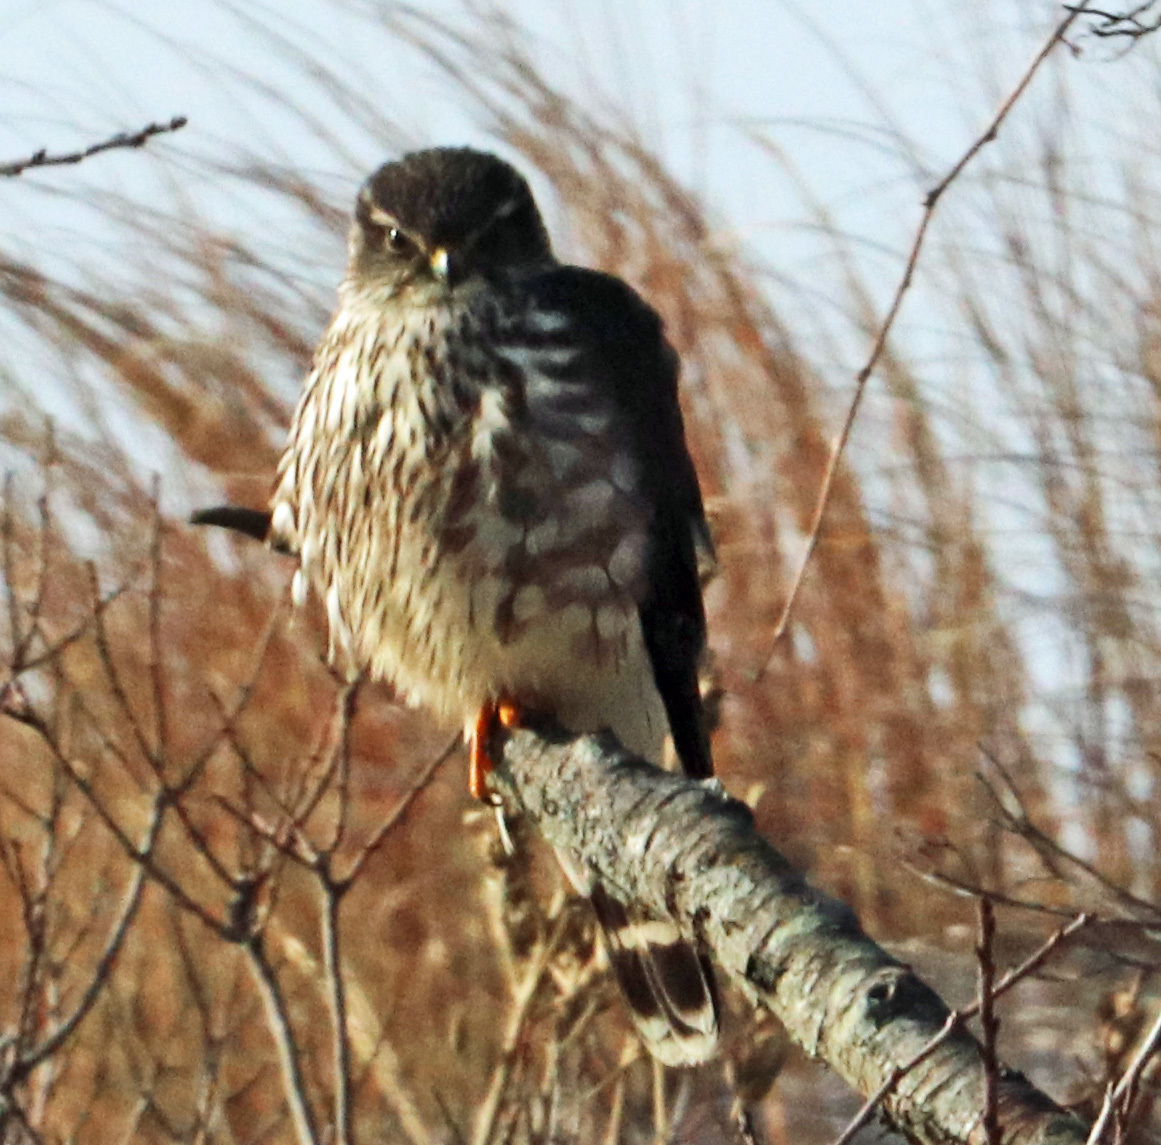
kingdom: Animalia
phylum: Chordata
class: Aves
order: Falconiformes
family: Falconidae
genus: Falco
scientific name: Falco columbarius
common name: Merlin
